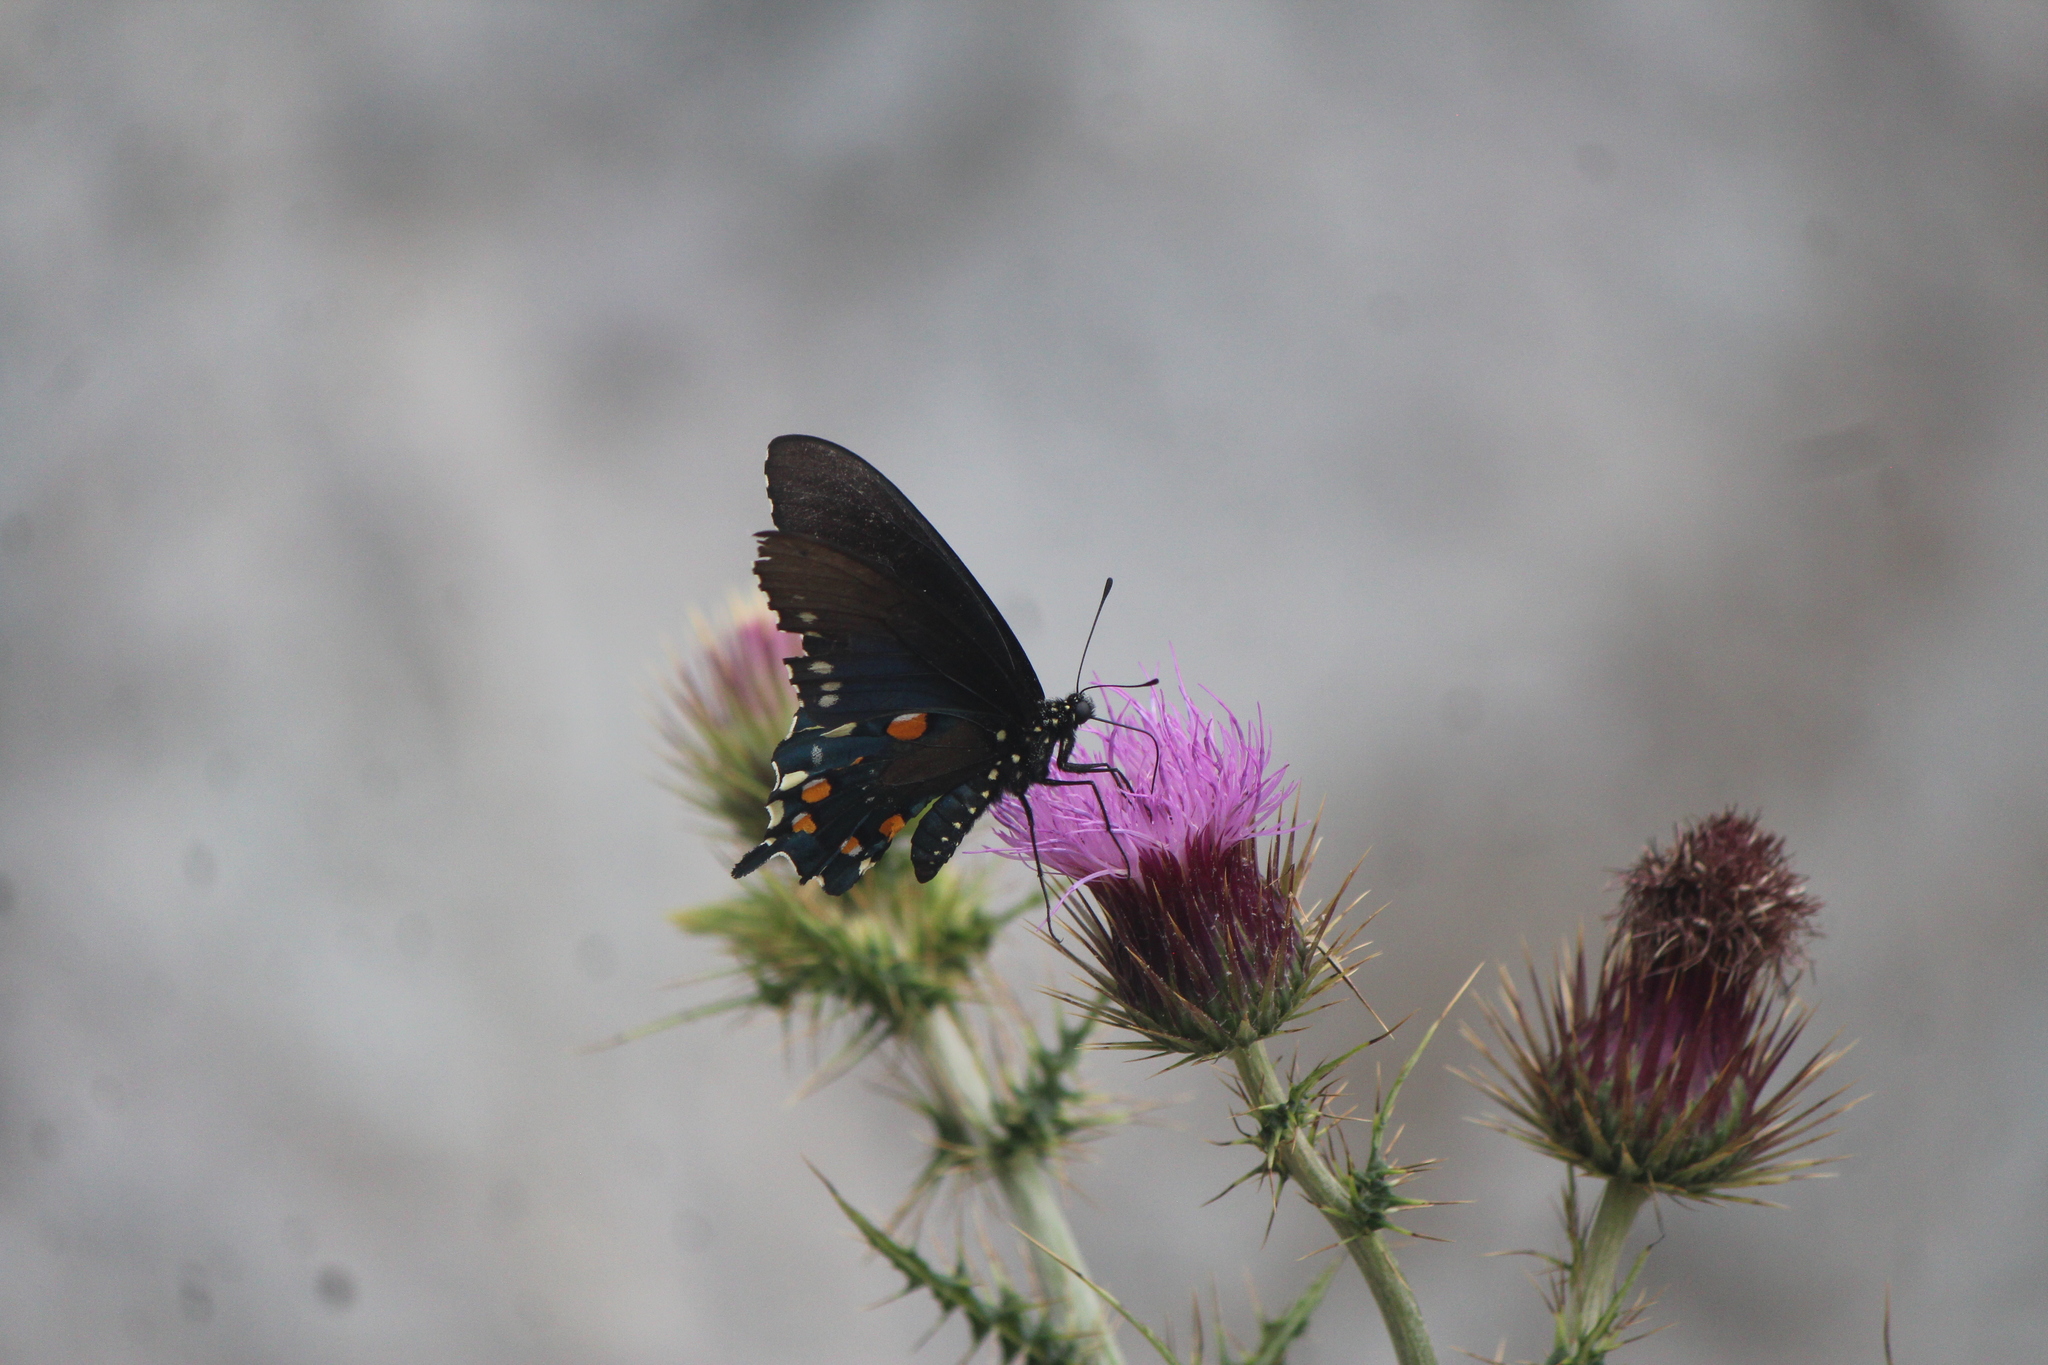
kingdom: Animalia
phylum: Arthropoda
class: Insecta
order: Lepidoptera
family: Papilionidae
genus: Battus
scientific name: Battus philenor
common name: Pipevine swallowtail
